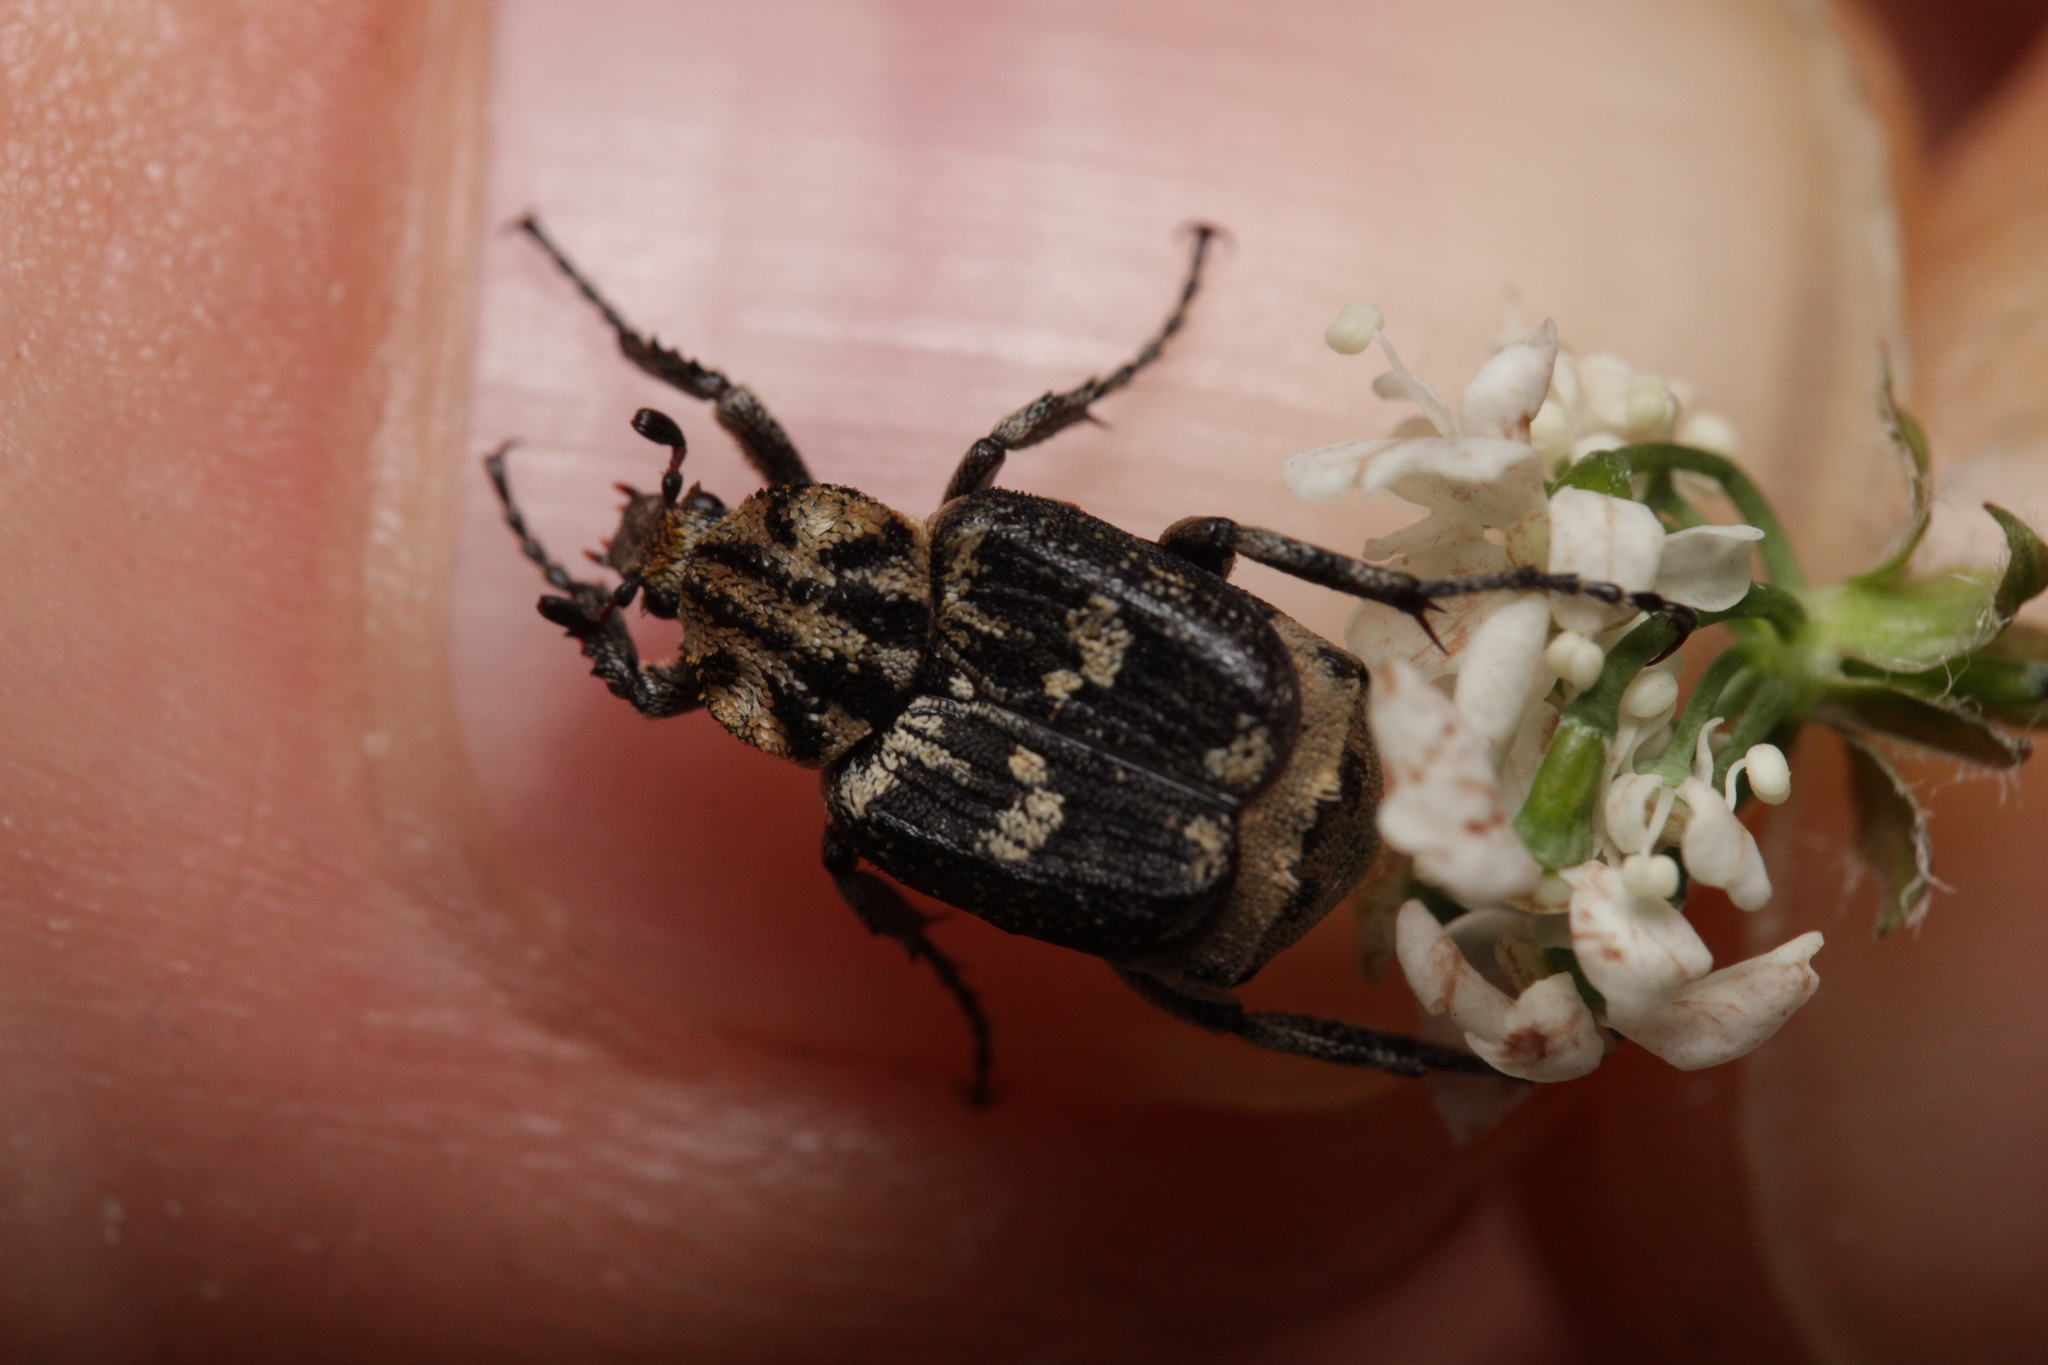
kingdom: Animalia
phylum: Arthropoda
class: Insecta
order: Coleoptera
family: Scarabaeidae
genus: Valgus
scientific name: Valgus hemipterus
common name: Bug flower chafer
